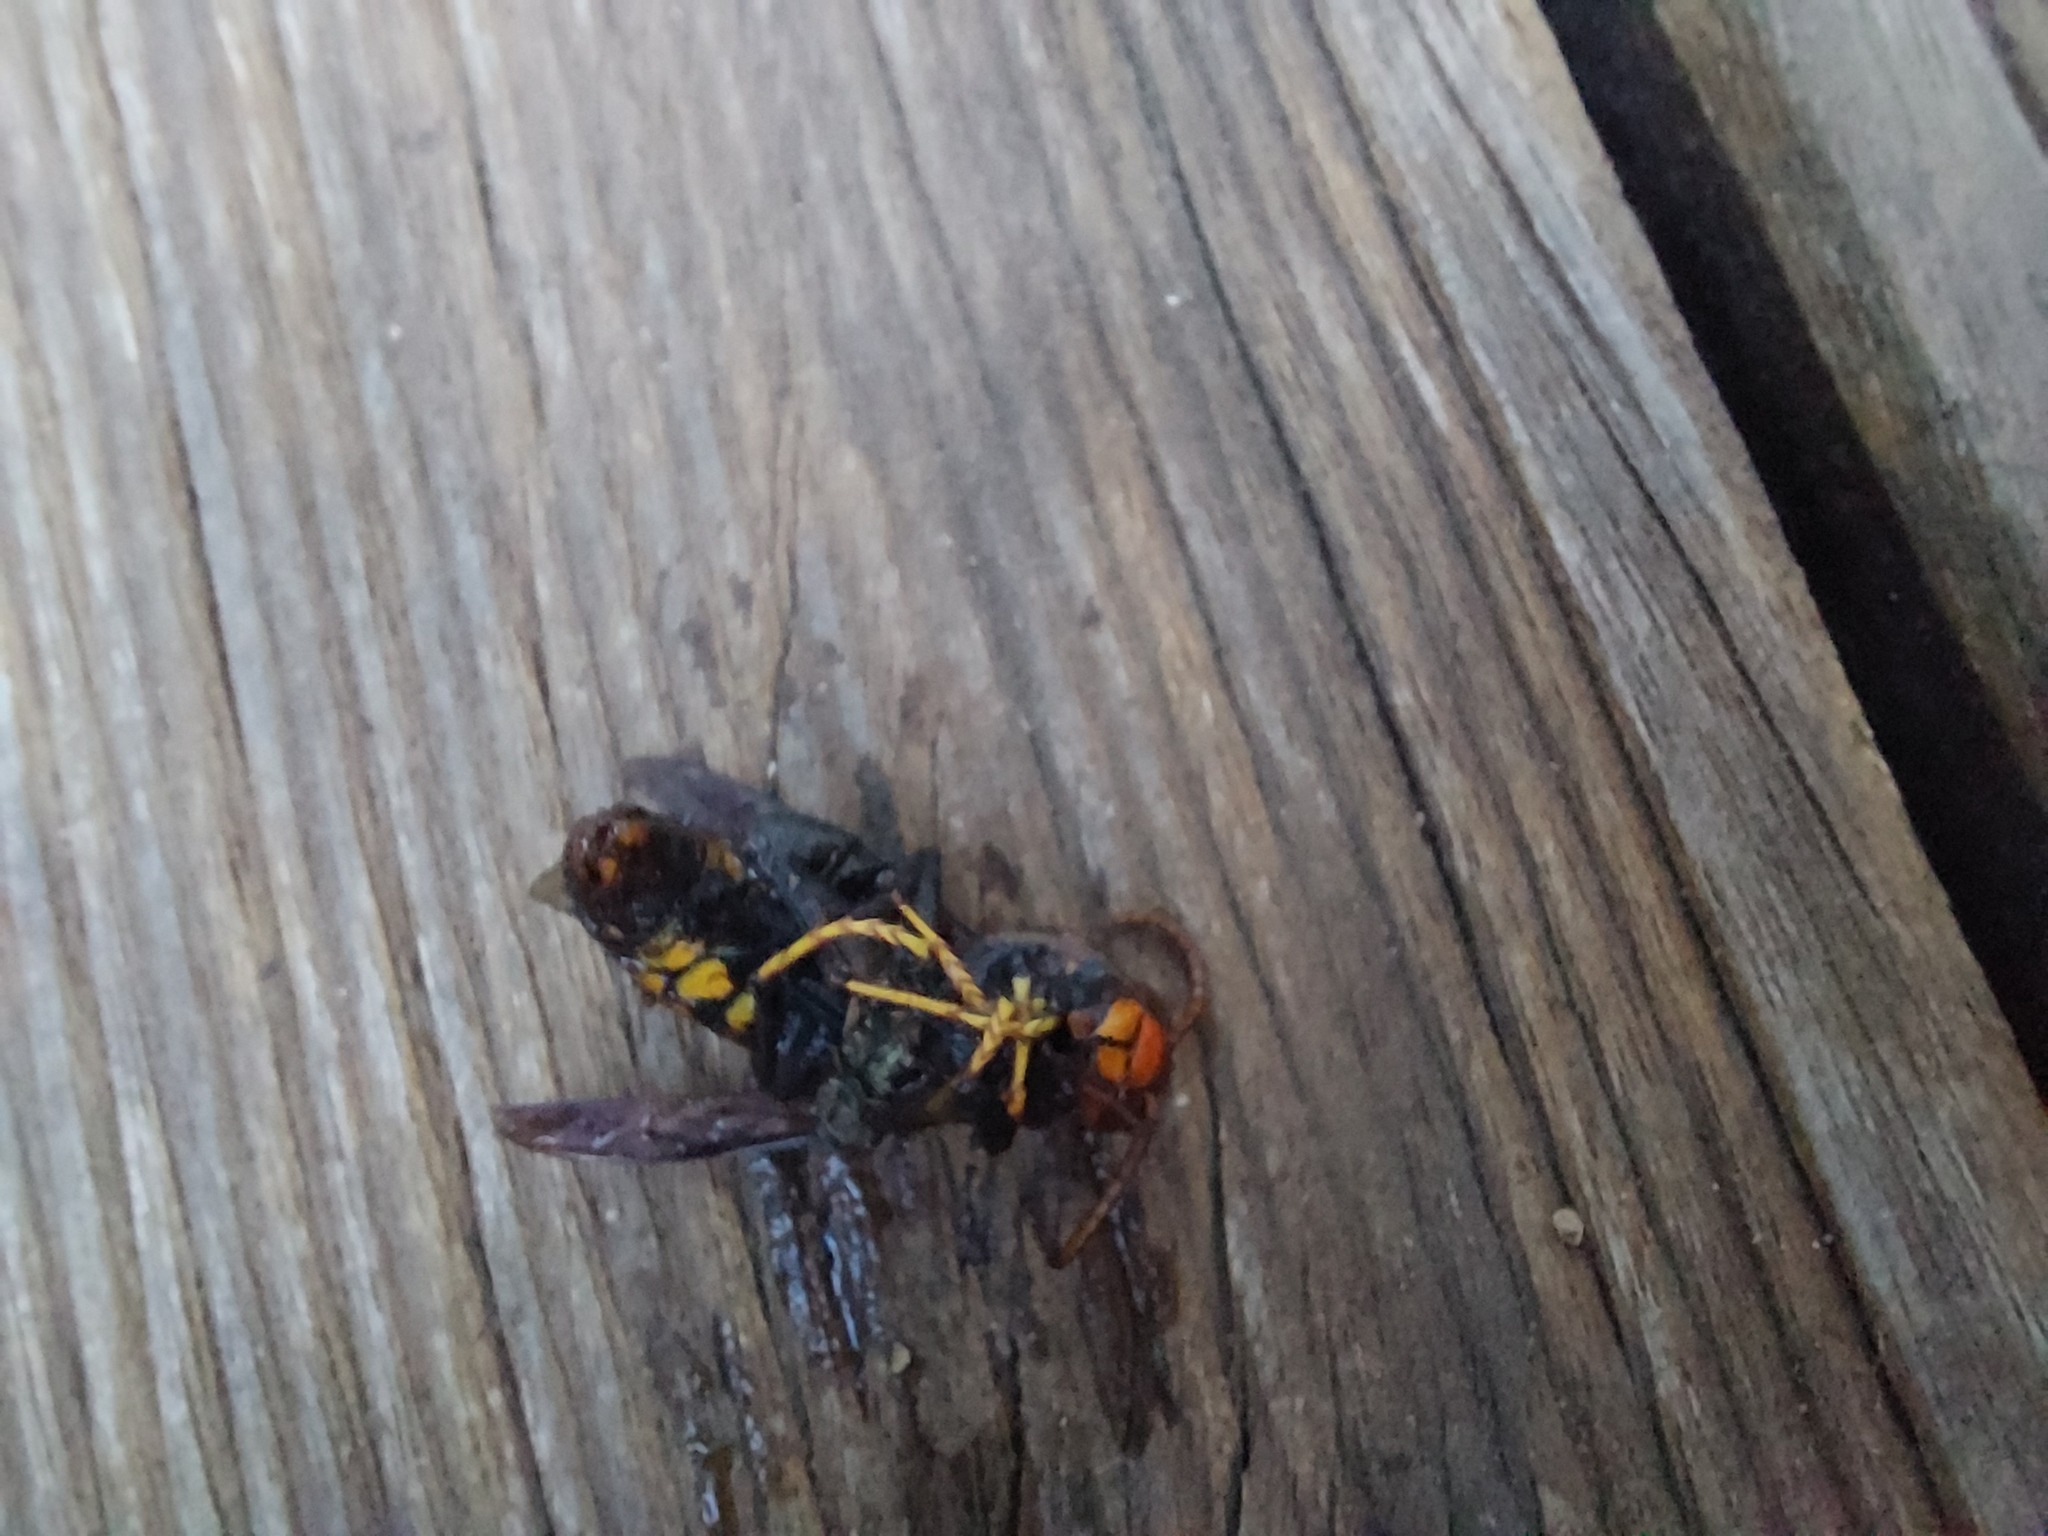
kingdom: Animalia
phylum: Arthropoda
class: Insecta
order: Hymenoptera
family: Vespidae
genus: Vespa
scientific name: Vespa velutina
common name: Asian hornet
